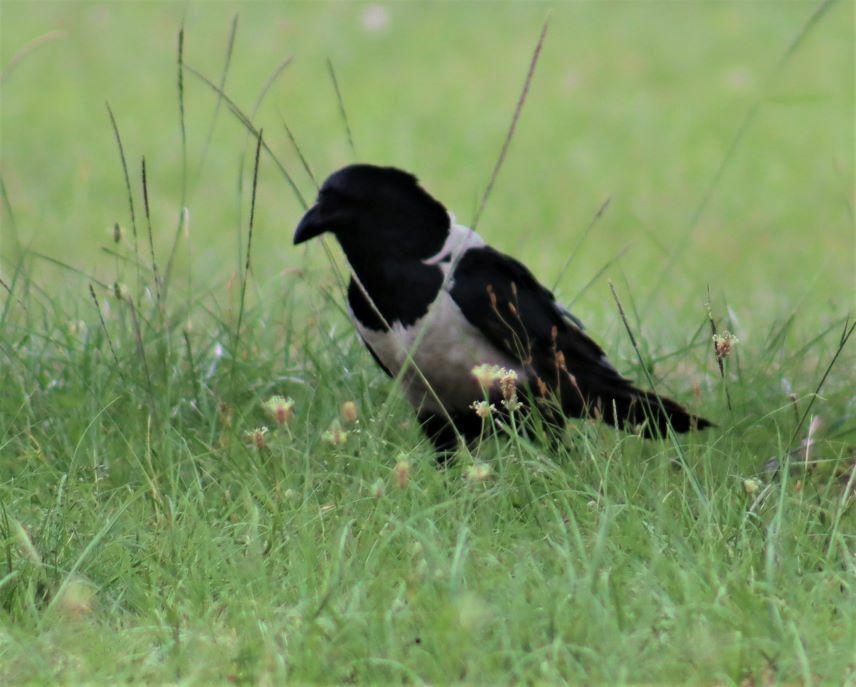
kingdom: Animalia
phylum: Chordata
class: Aves
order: Passeriformes
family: Corvidae
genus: Corvus
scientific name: Corvus albus
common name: Pied crow
